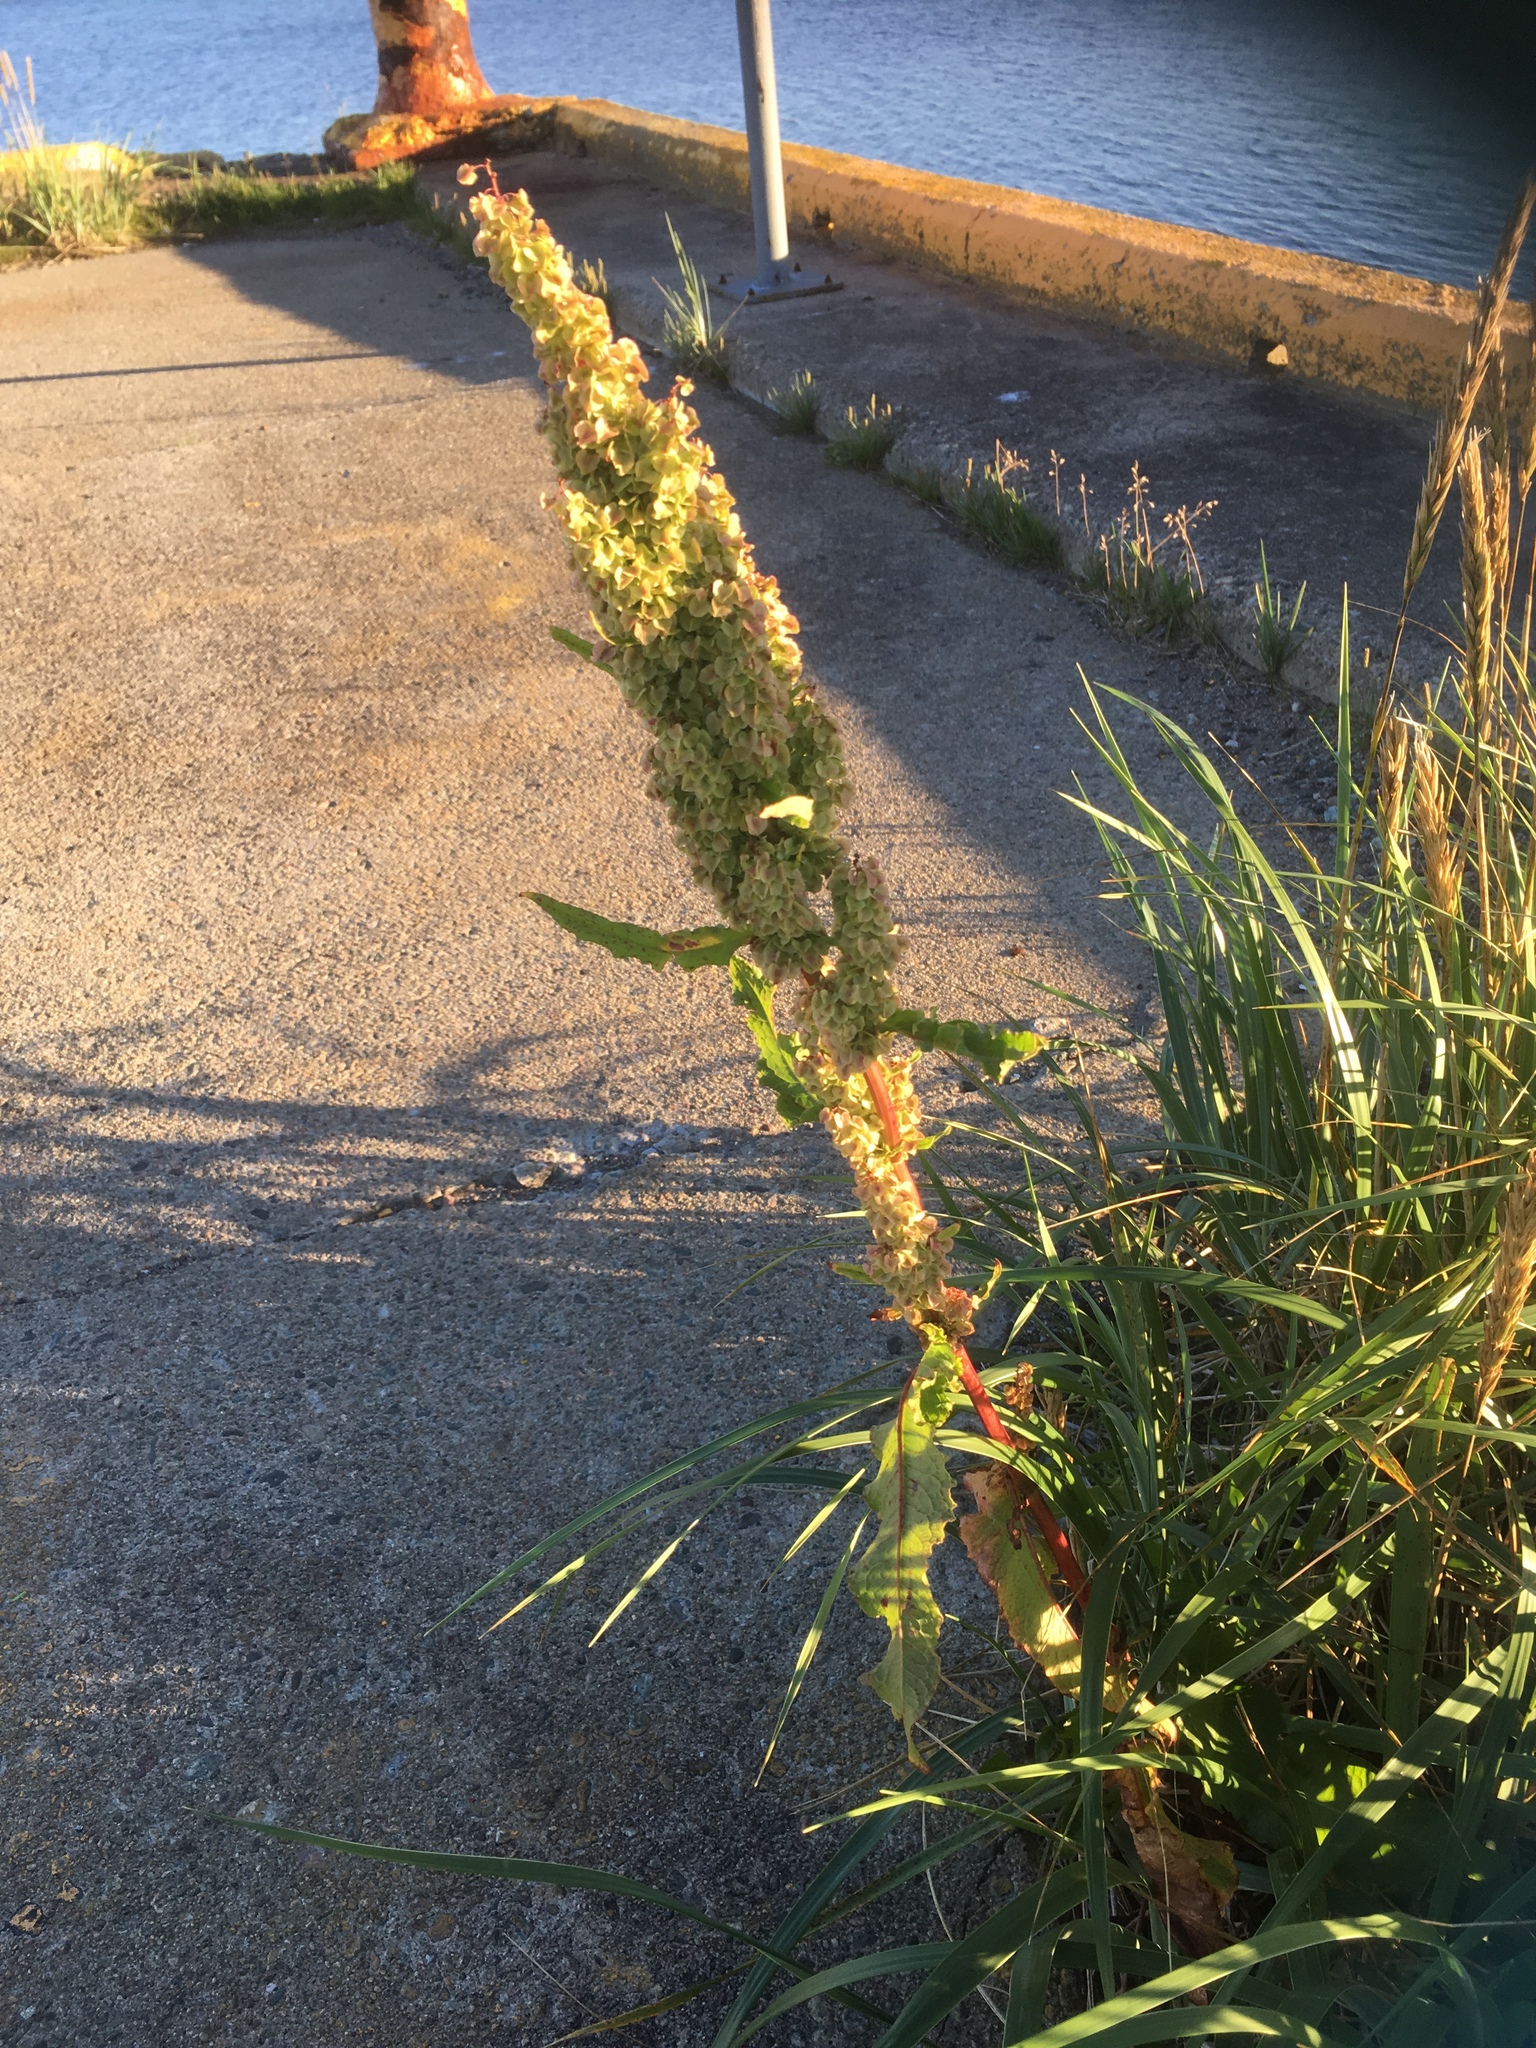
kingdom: Plantae
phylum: Tracheophyta
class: Magnoliopsida
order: Caryophyllales
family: Polygonaceae
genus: Rumex
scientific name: Rumex crispus
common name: Curled dock
